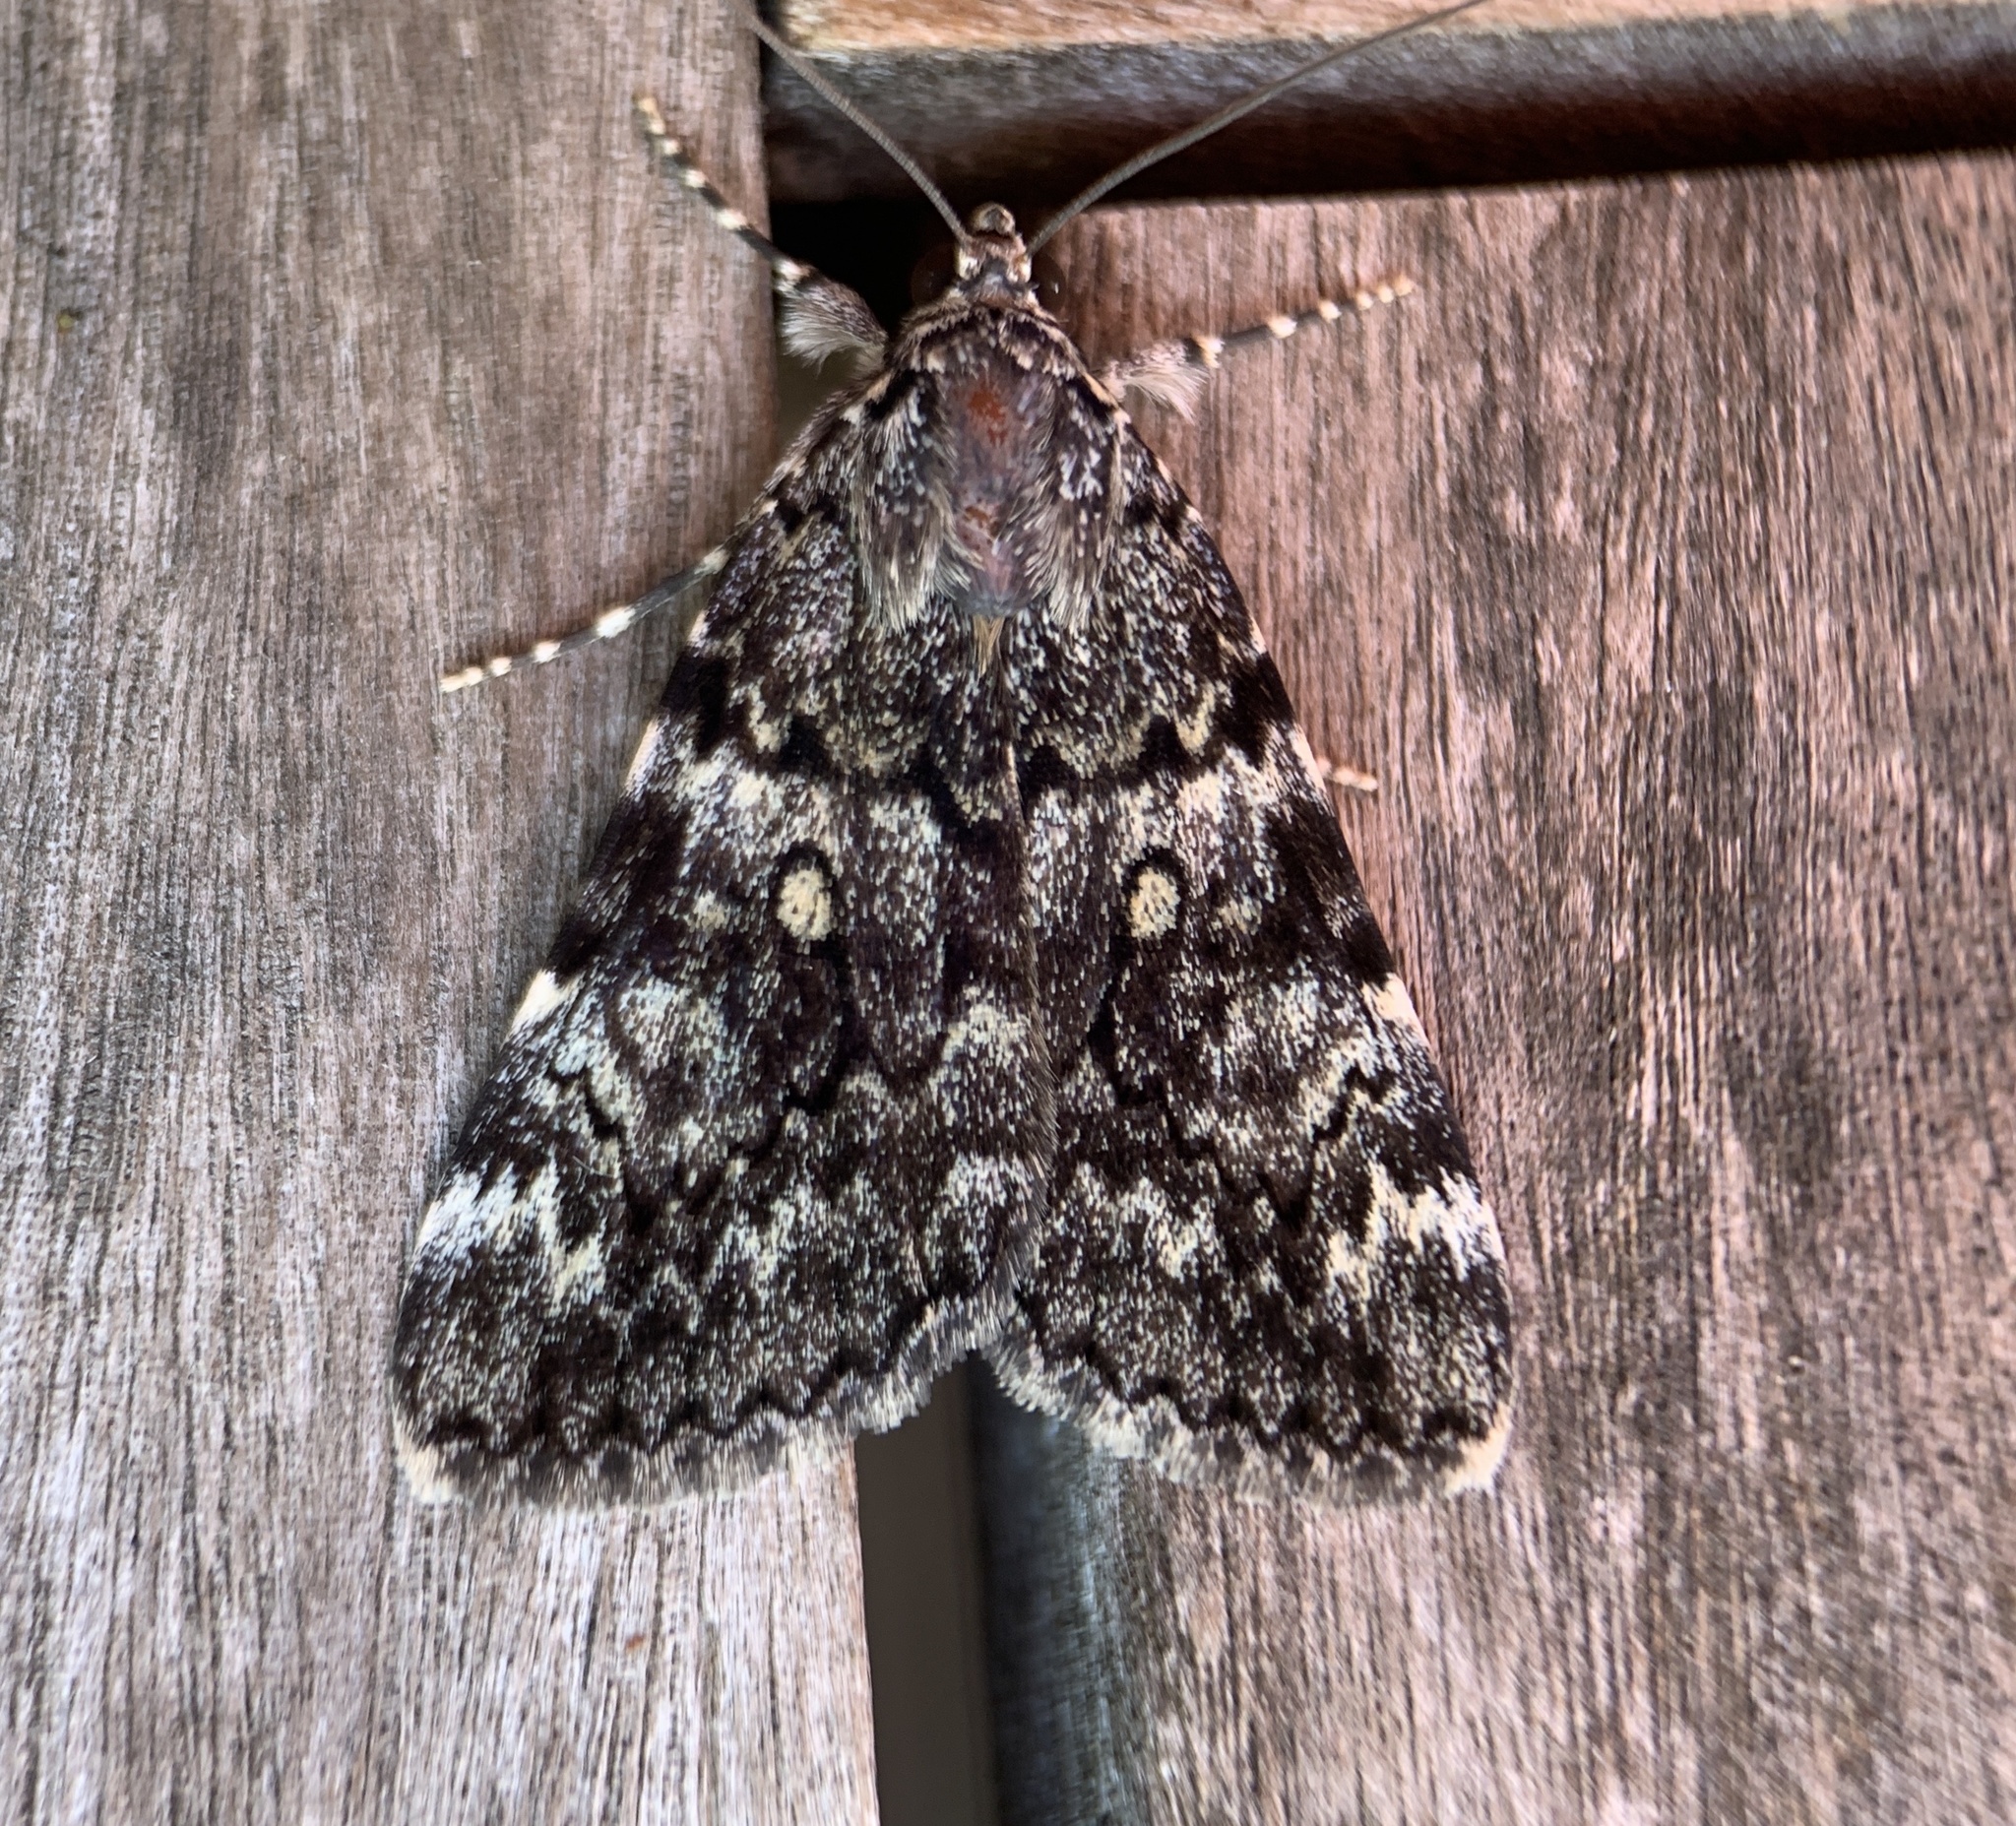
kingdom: Animalia
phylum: Arthropoda
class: Insecta
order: Lepidoptera
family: Erebidae
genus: Catocala
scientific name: Catocala lineella
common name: Little lined underwing
